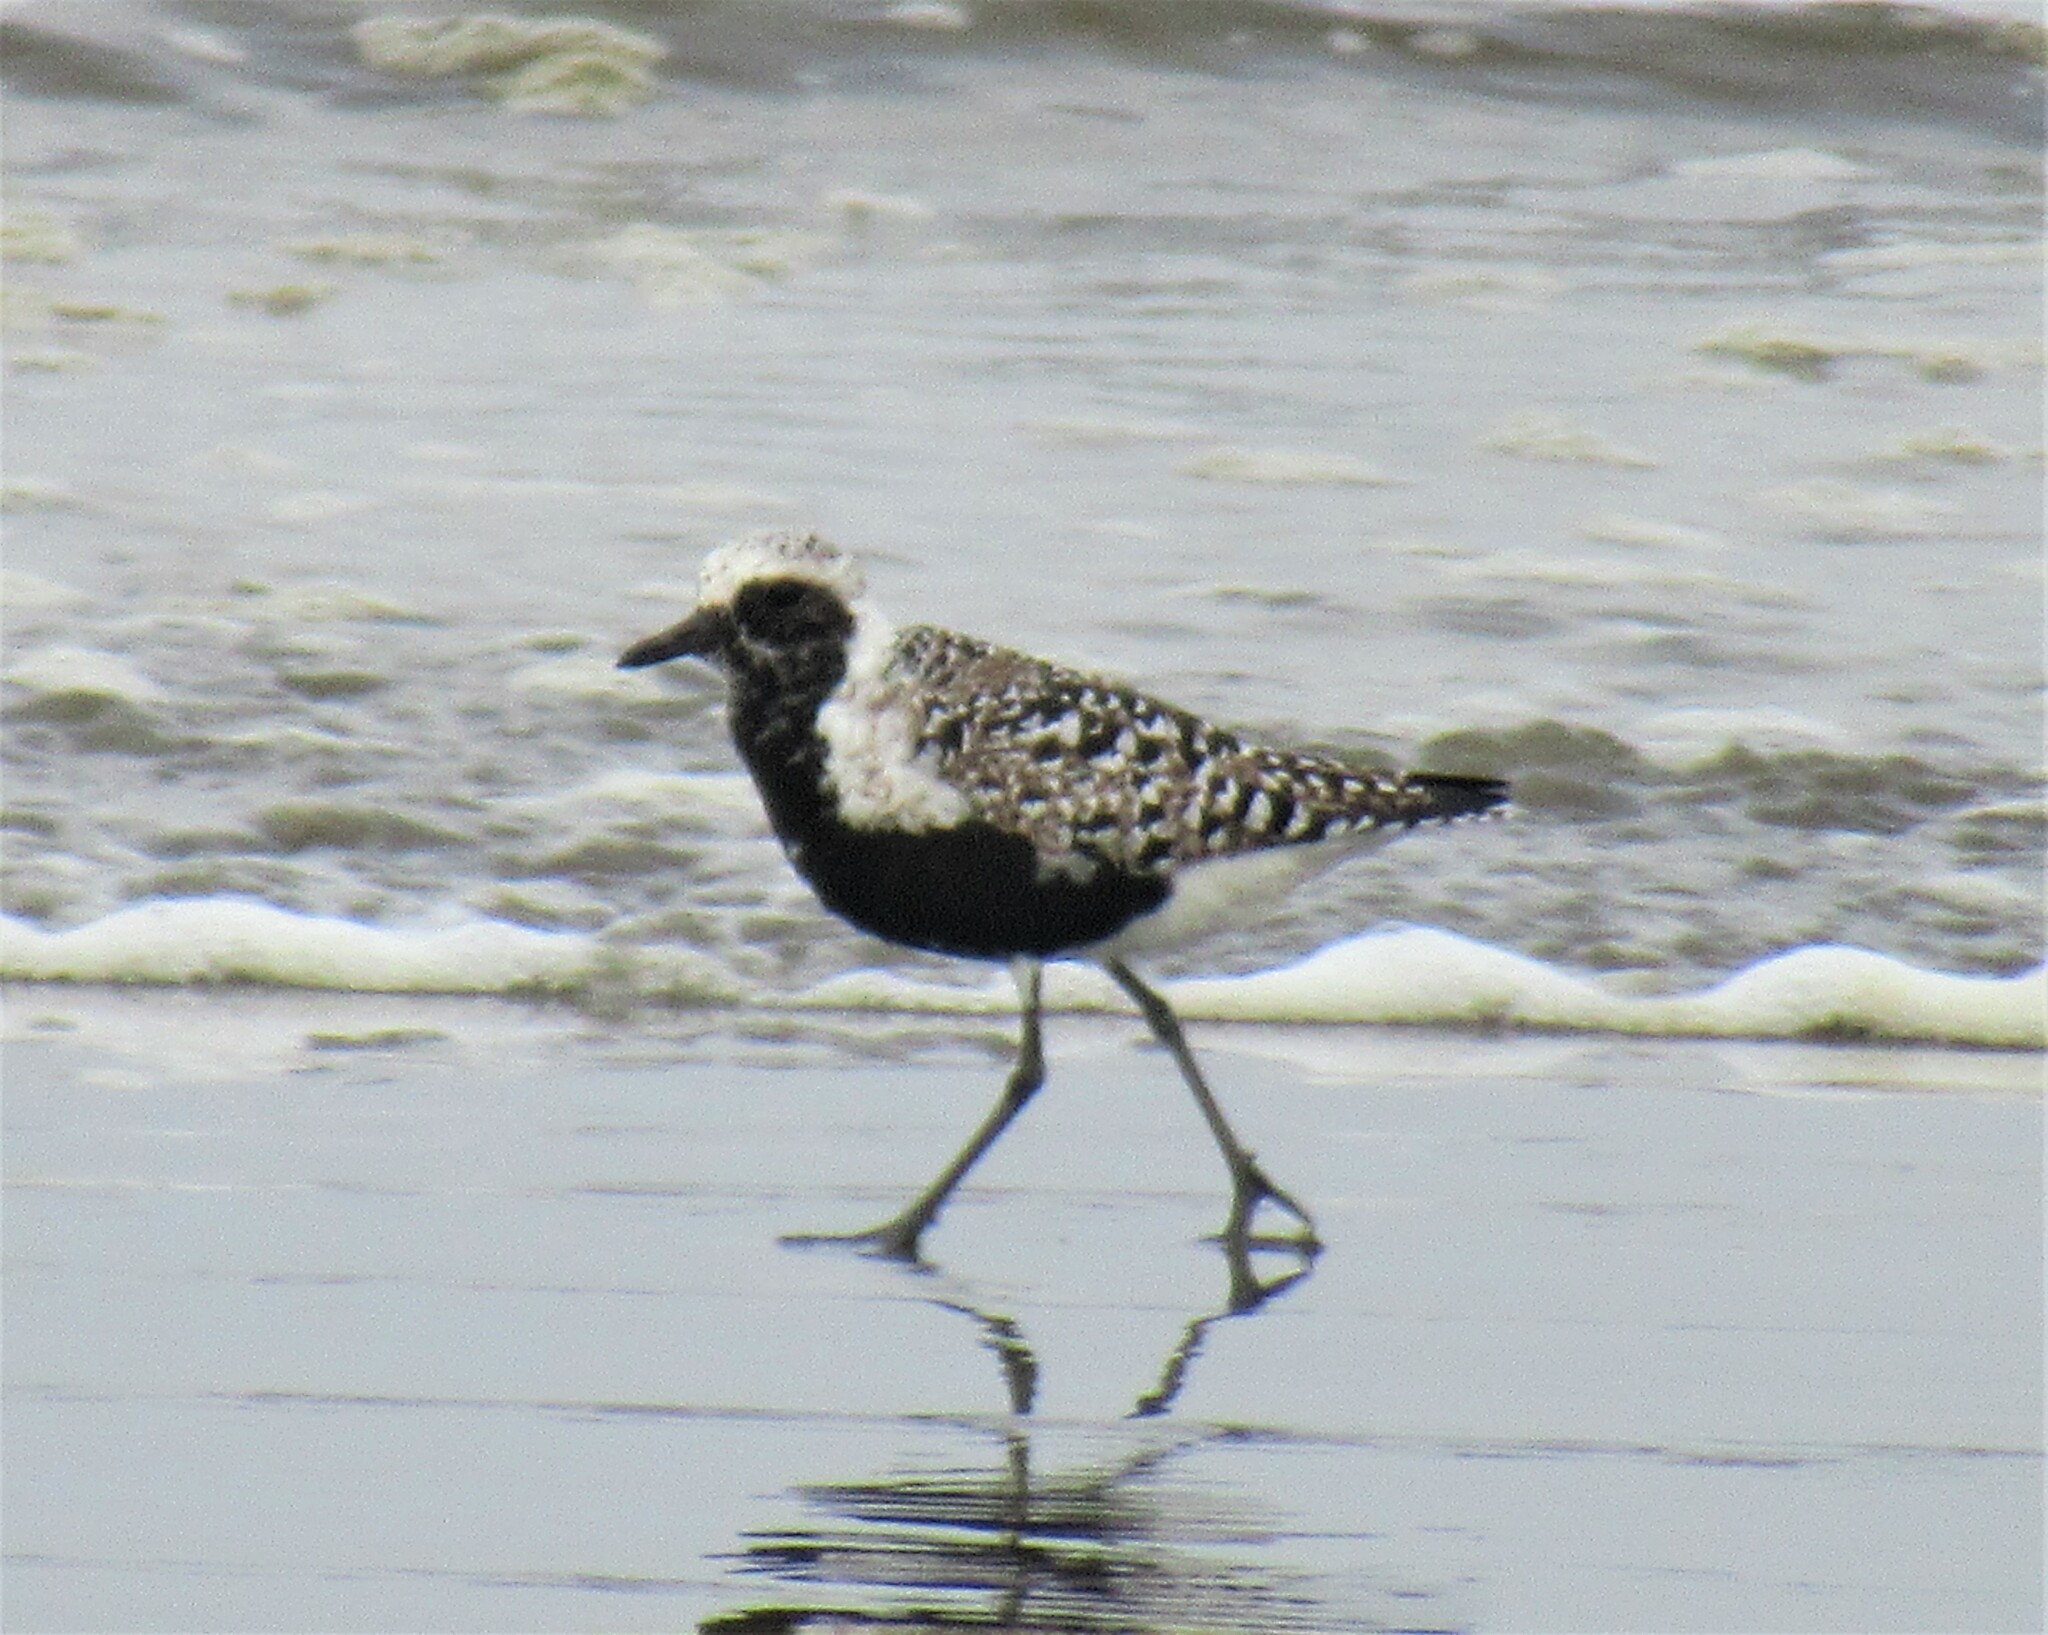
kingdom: Animalia
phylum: Chordata
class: Aves
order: Charadriiformes
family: Charadriidae
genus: Pluvialis
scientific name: Pluvialis squatarola
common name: Grey plover
